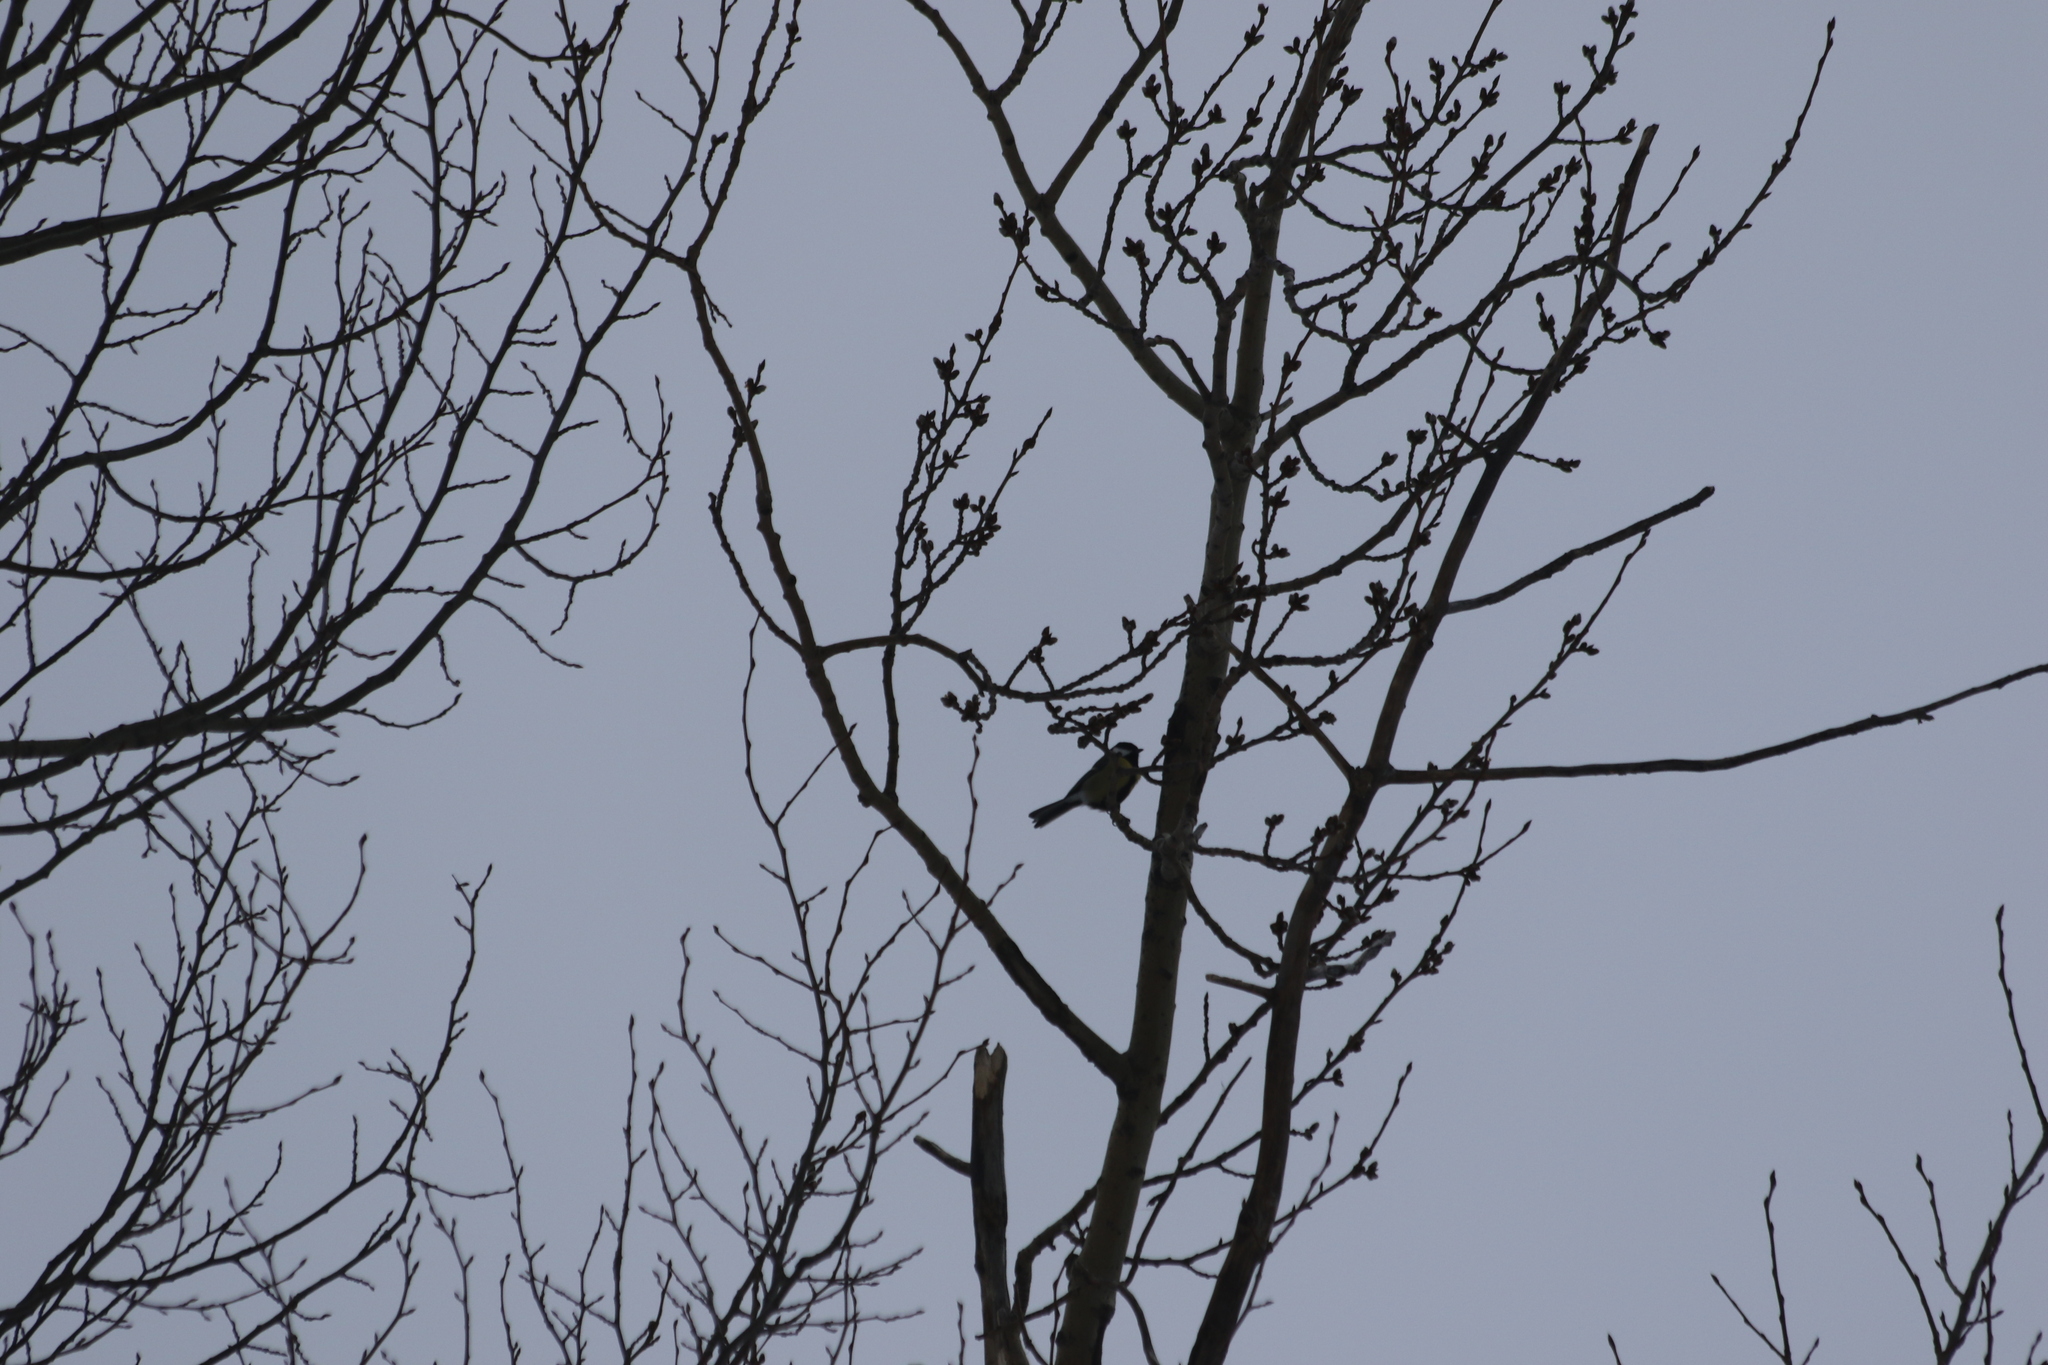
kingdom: Animalia
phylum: Chordata
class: Aves
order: Passeriformes
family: Paridae
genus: Parus
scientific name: Parus major
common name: Great tit
